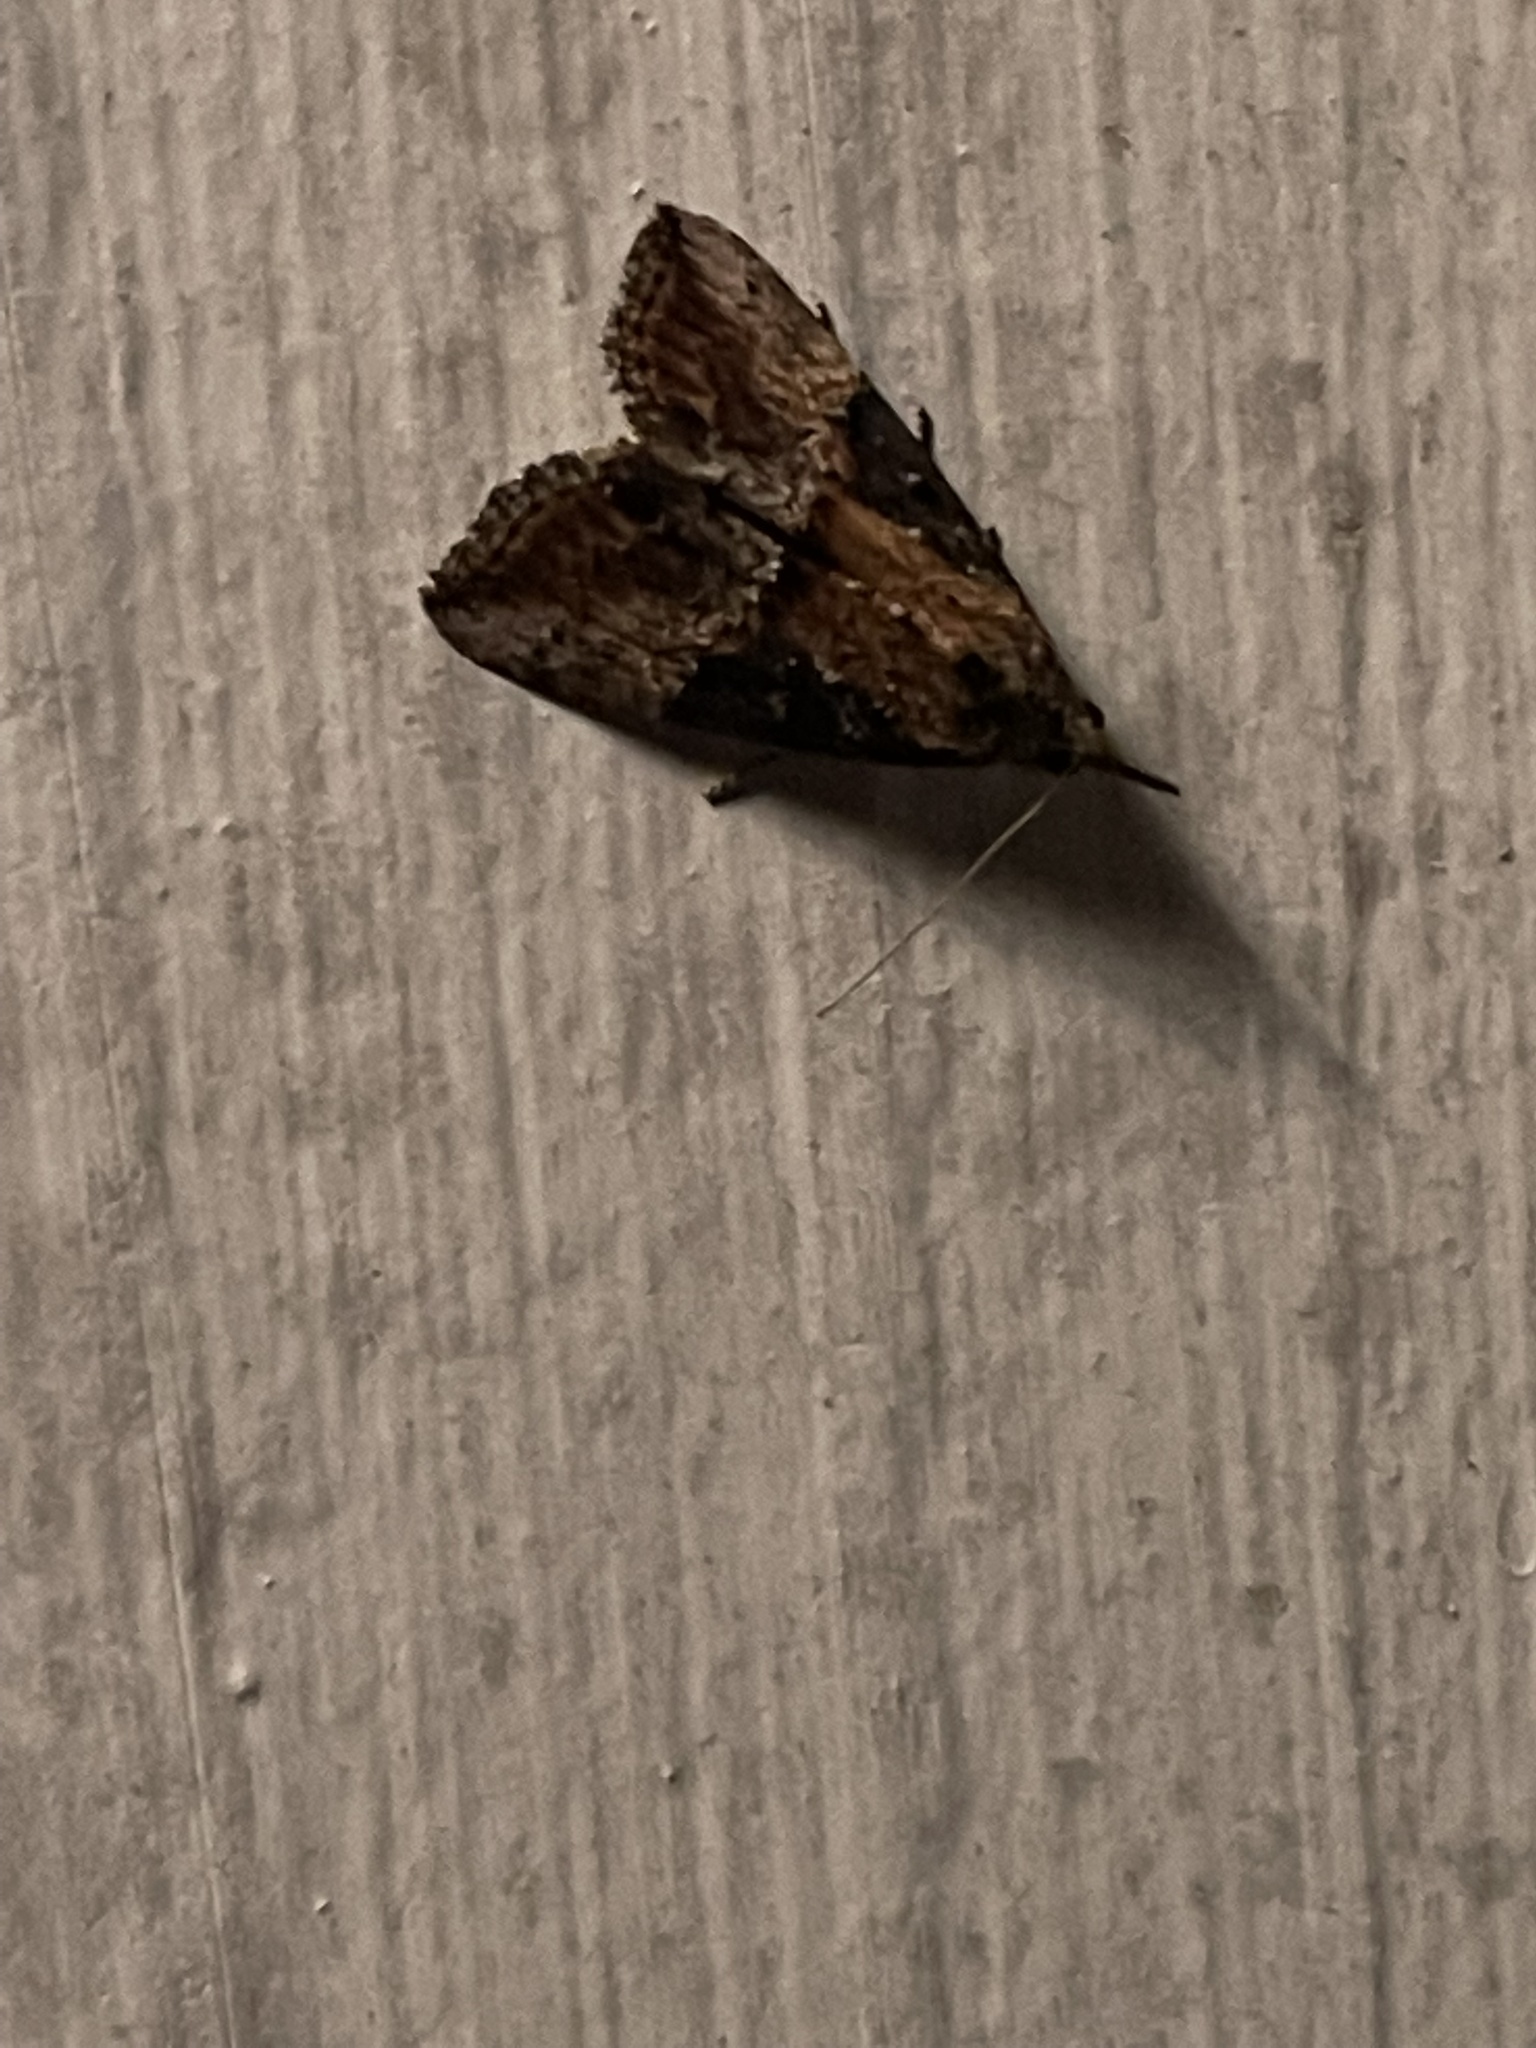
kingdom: Animalia
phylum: Arthropoda
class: Insecta
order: Lepidoptera
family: Erebidae
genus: Hypena
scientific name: Hypena scabra
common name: Green cloverworm
